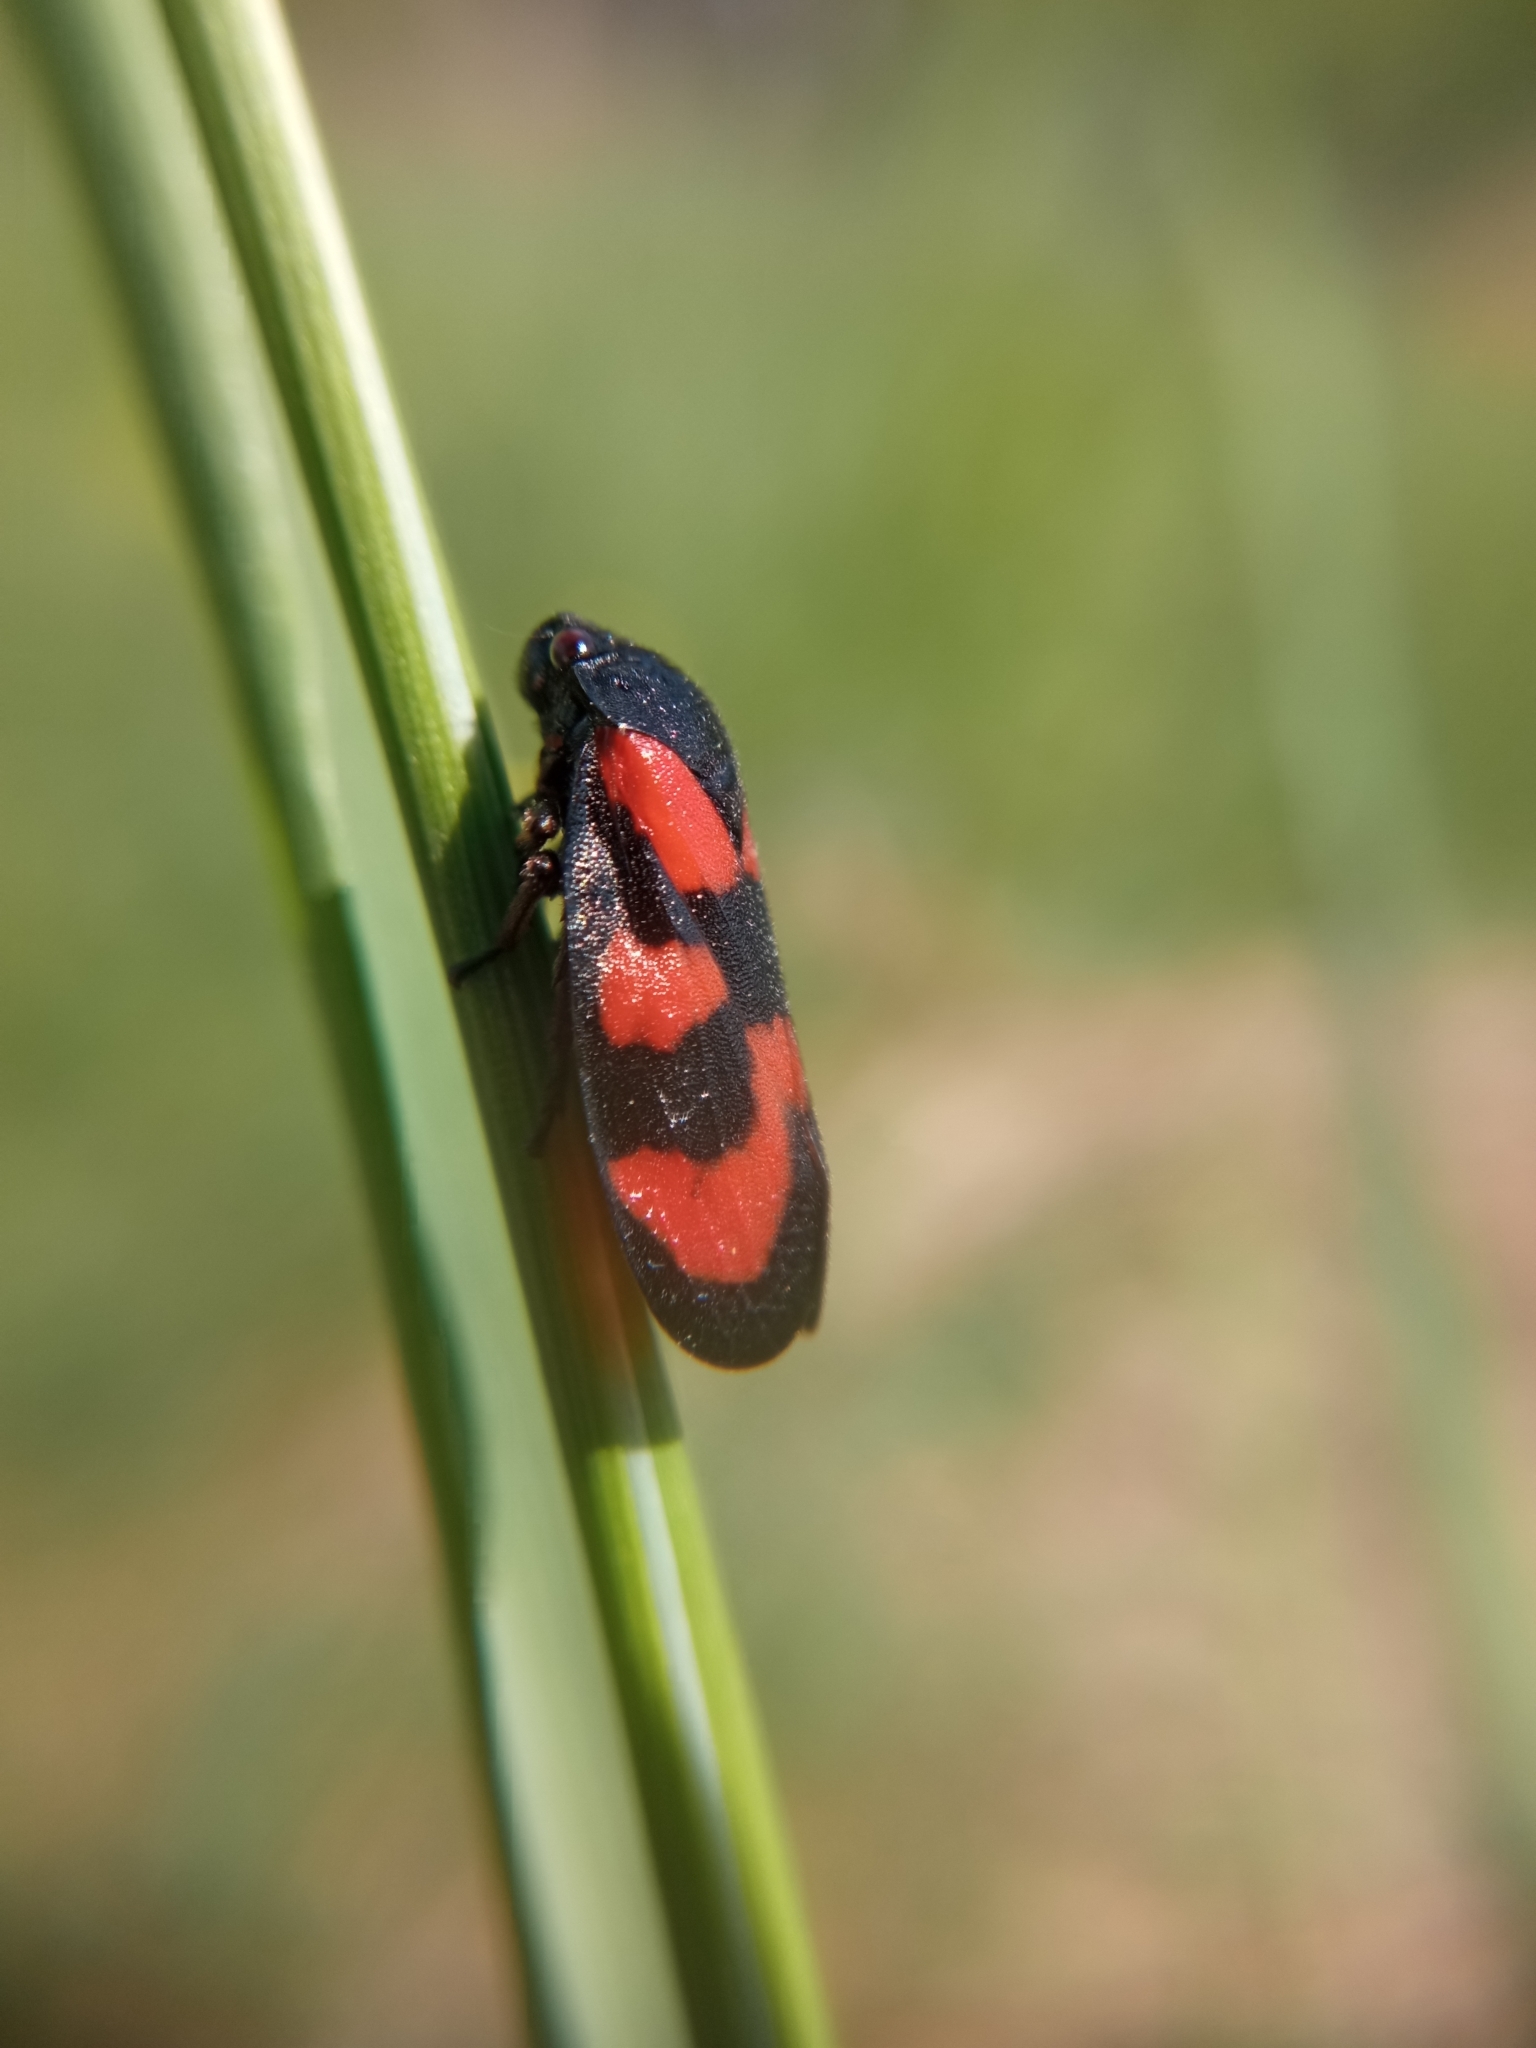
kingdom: Animalia
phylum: Arthropoda
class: Insecta
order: Hemiptera
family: Cercopidae
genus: Cercopis
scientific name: Cercopis vulnerata
